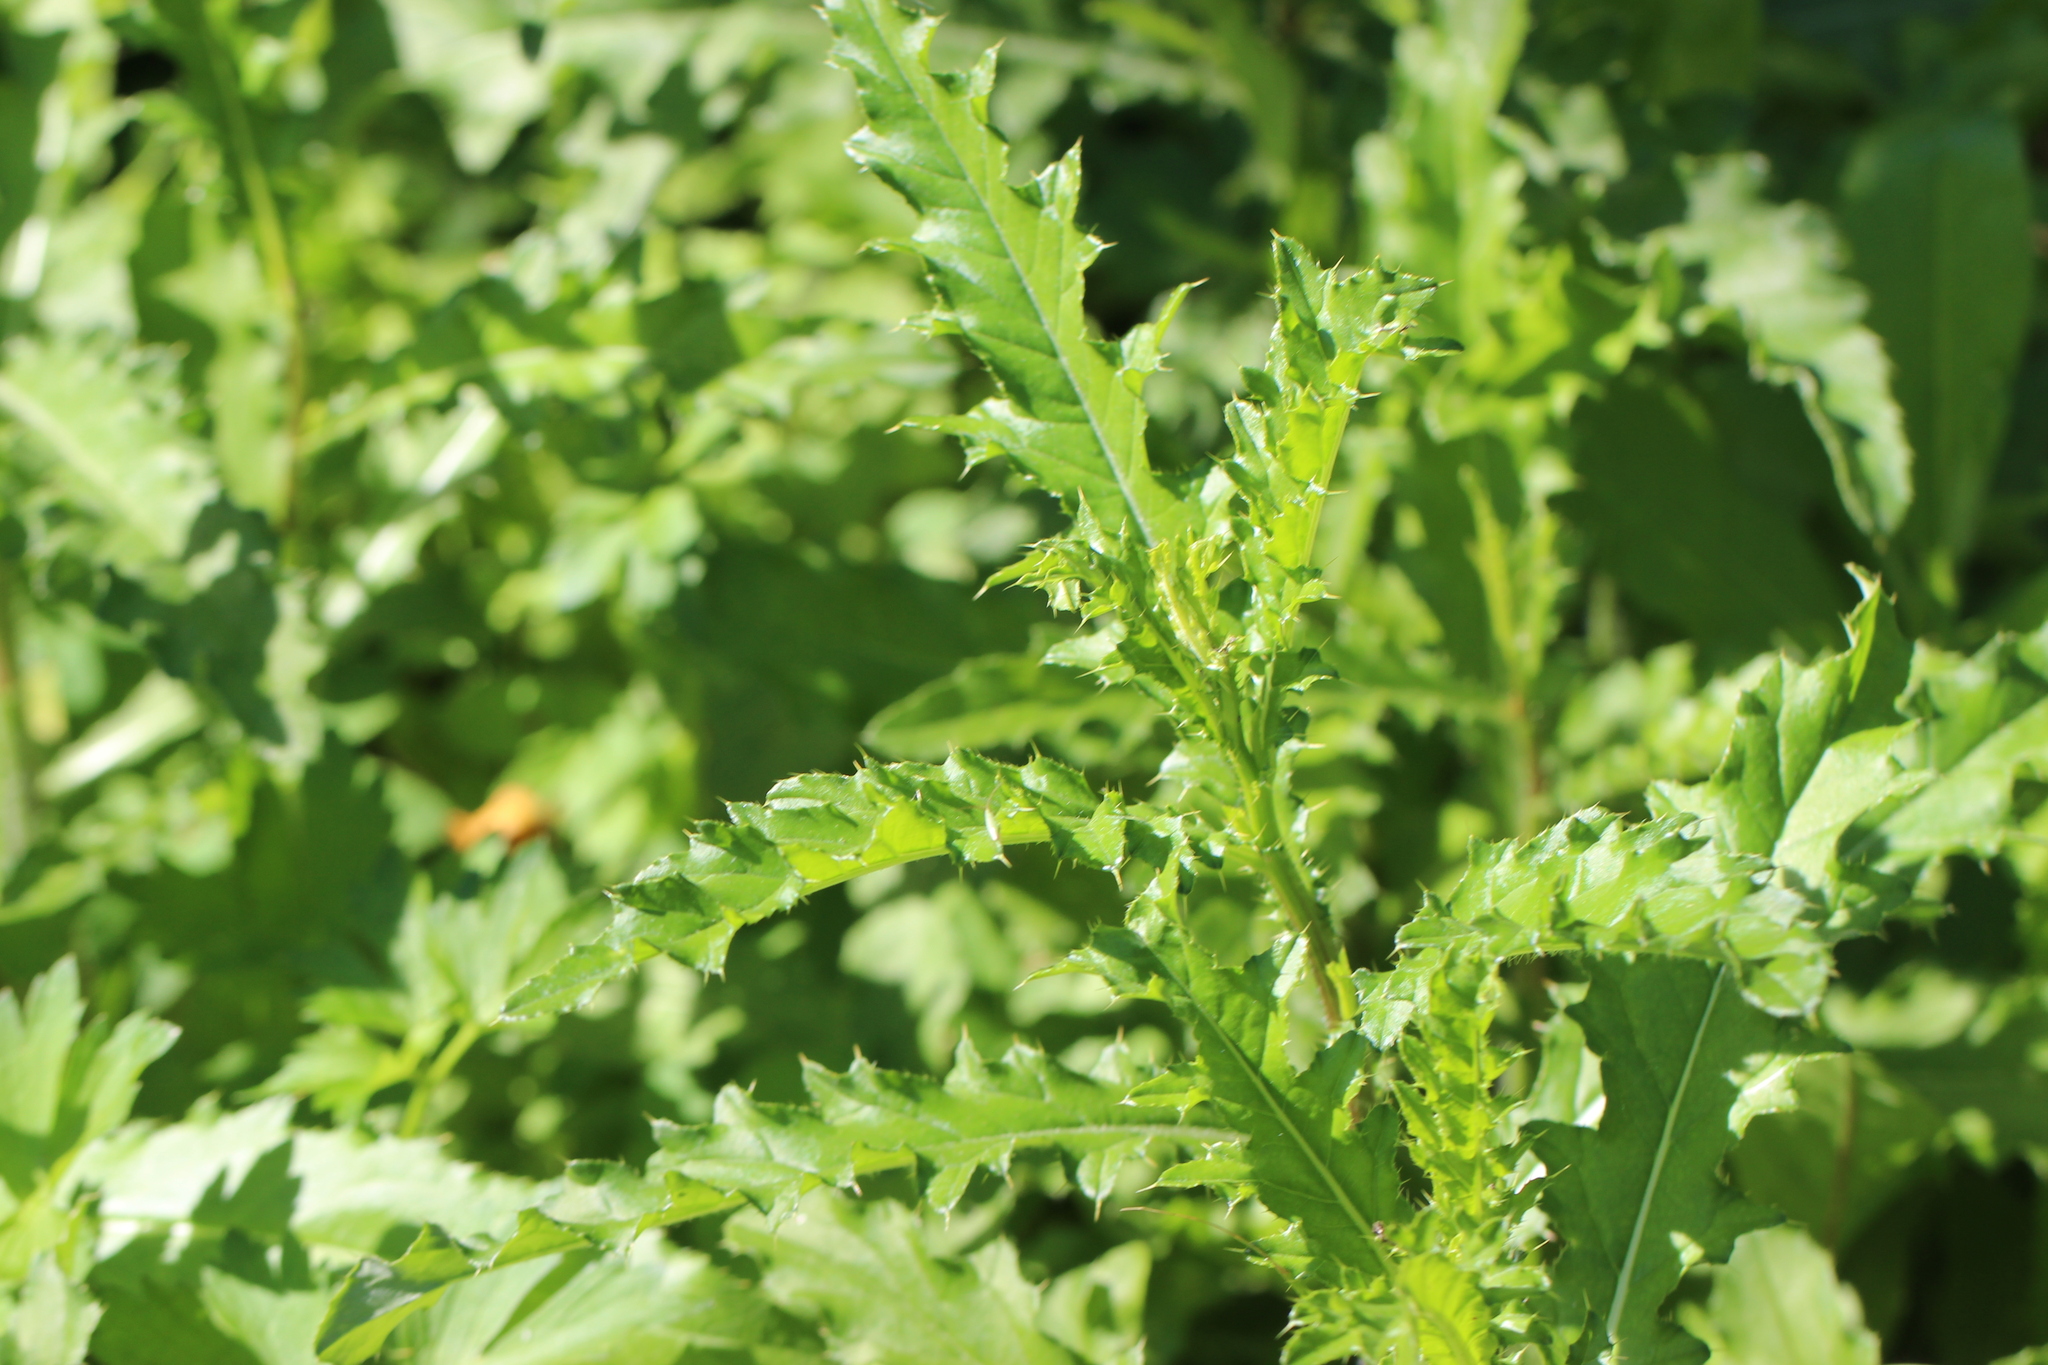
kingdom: Plantae
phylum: Tracheophyta
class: Magnoliopsida
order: Asterales
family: Asteraceae
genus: Cirsium
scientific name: Cirsium arvense
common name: Creeping thistle
